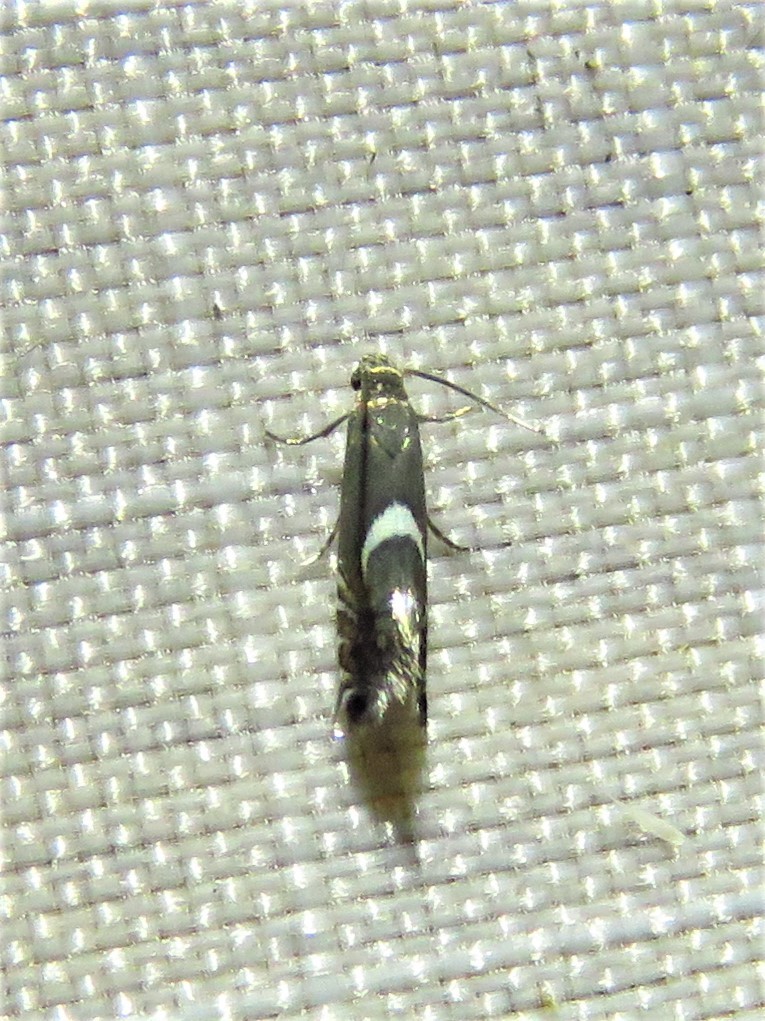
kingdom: Animalia
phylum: Arthropoda
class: Insecta
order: Lepidoptera
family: Glyphipterigidae
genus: Glyphipterix
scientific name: Glyphipterix Diploschizia impigritella
